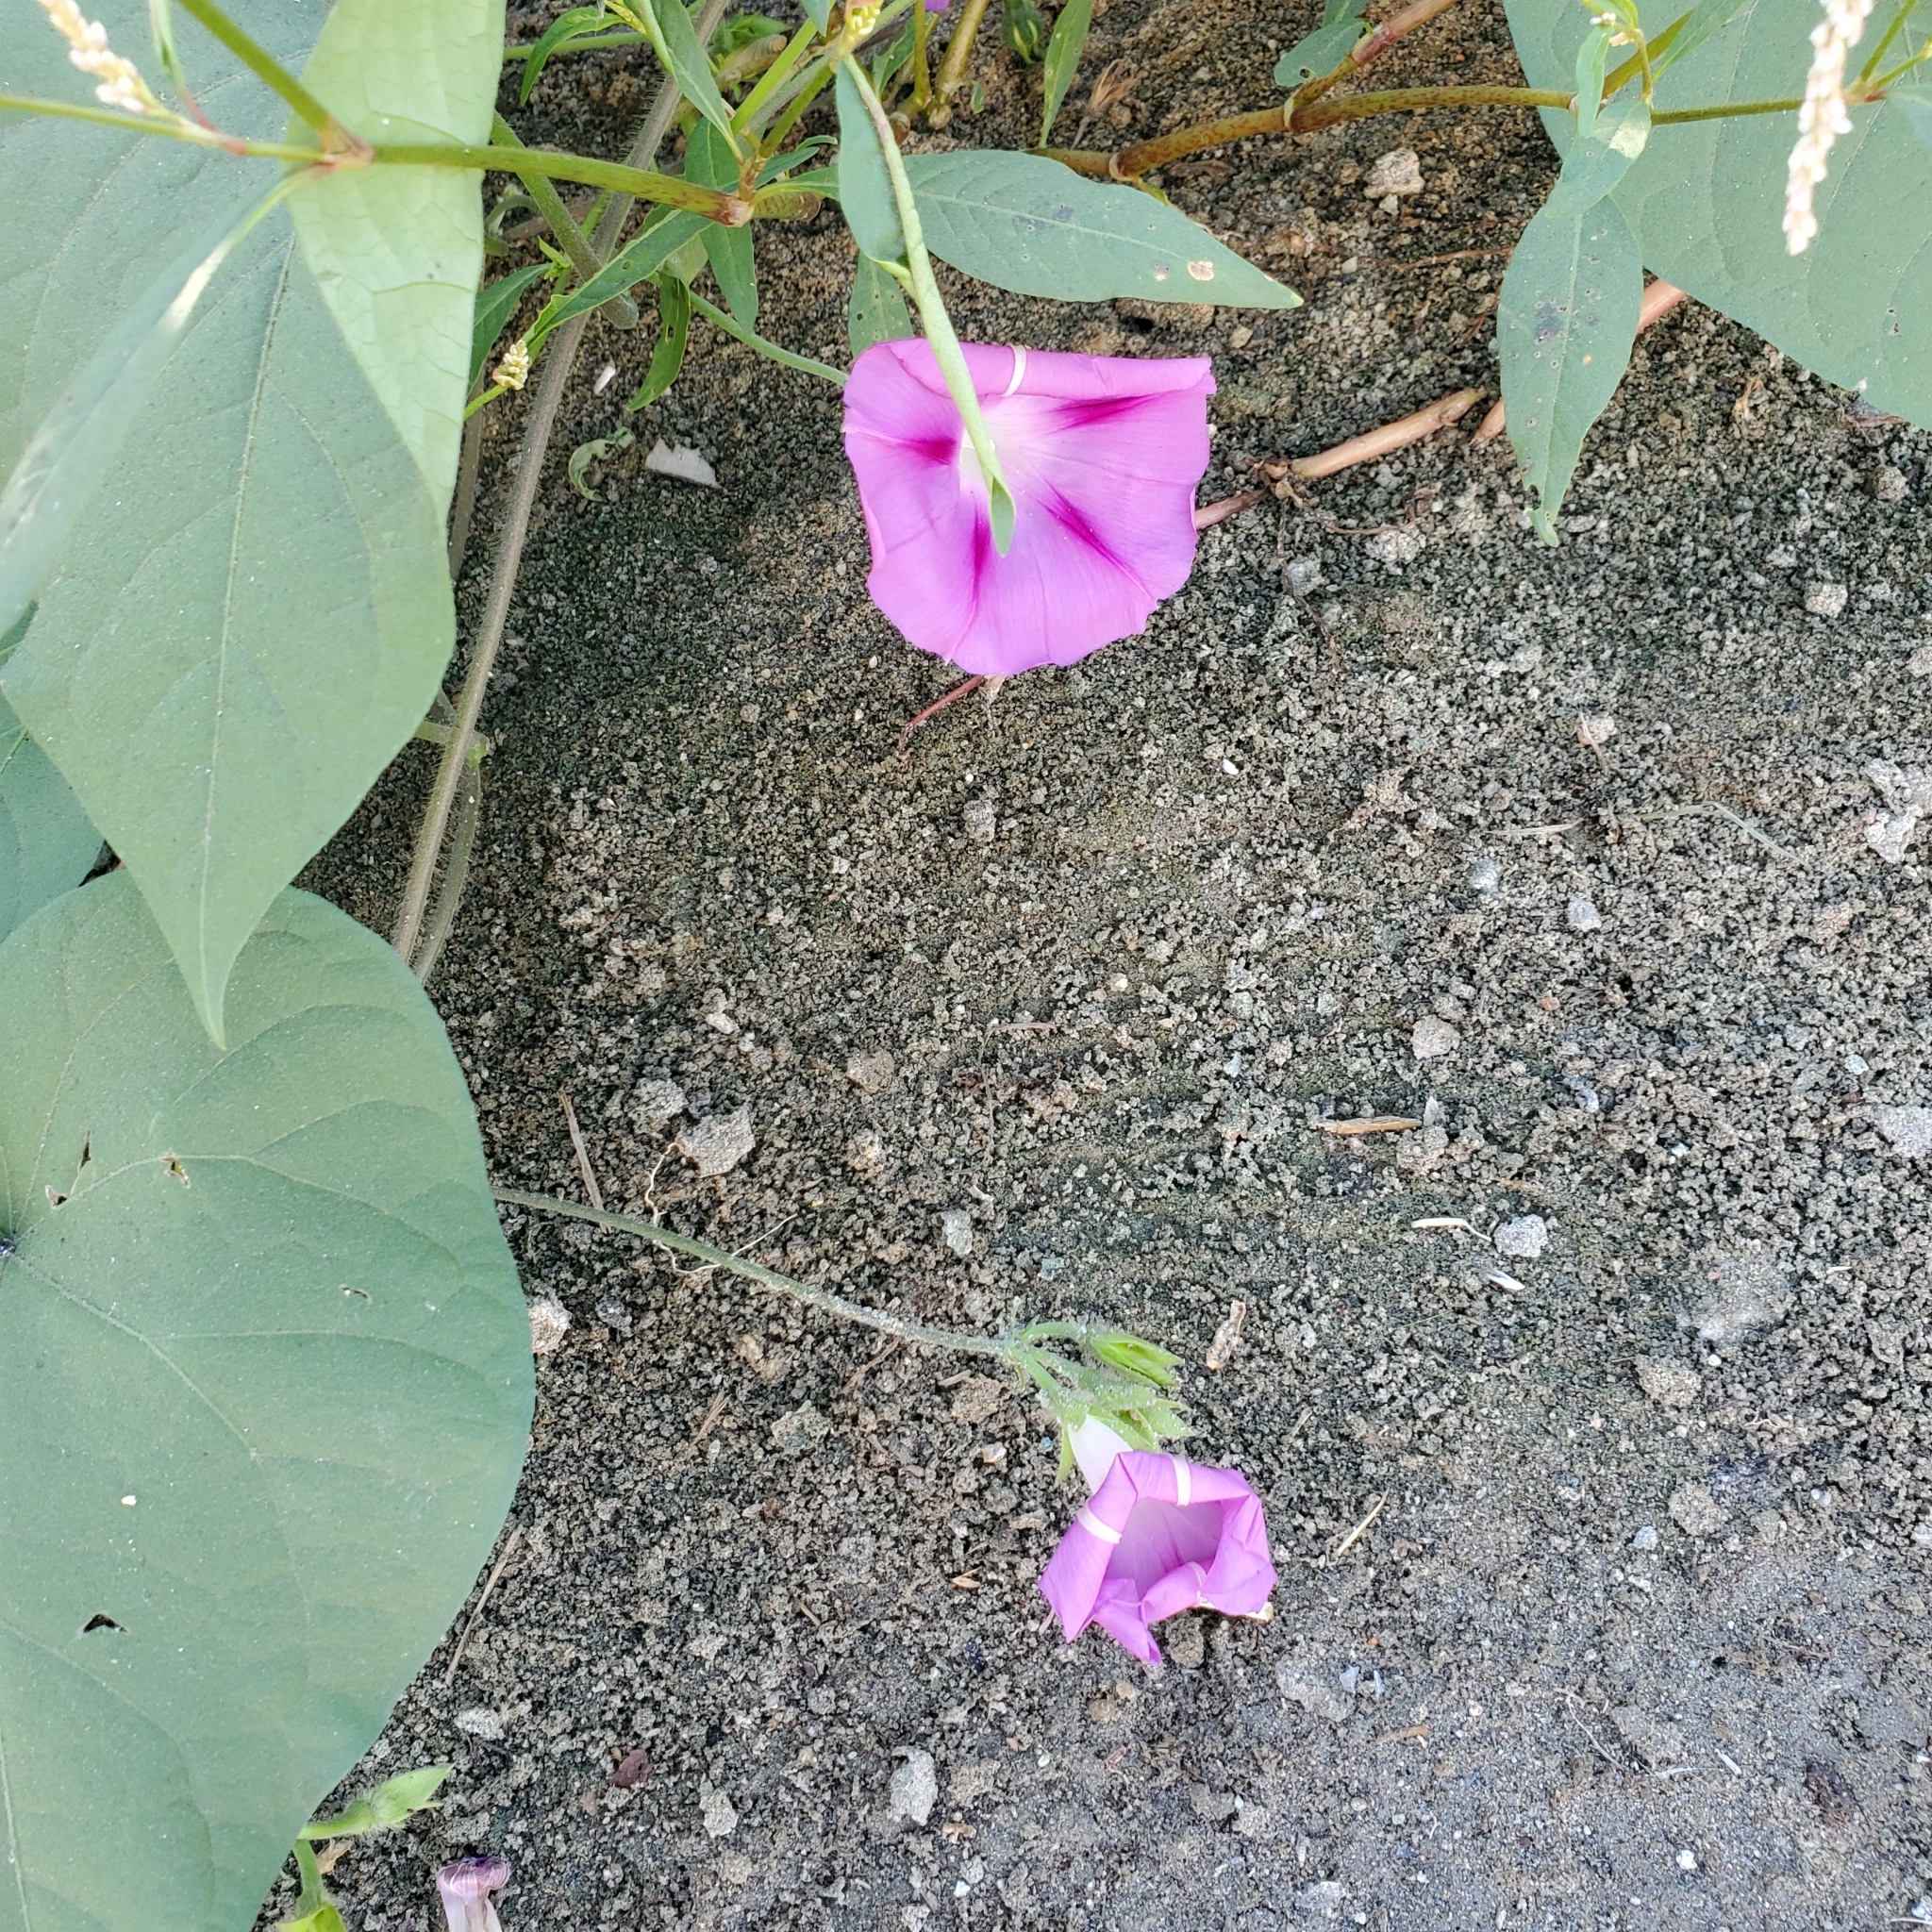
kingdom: Plantae
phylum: Tracheophyta
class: Magnoliopsida
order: Solanales
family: Convolvulaceae
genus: Ipomoea
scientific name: Ipomoea purpurea
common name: Common morning-glory
